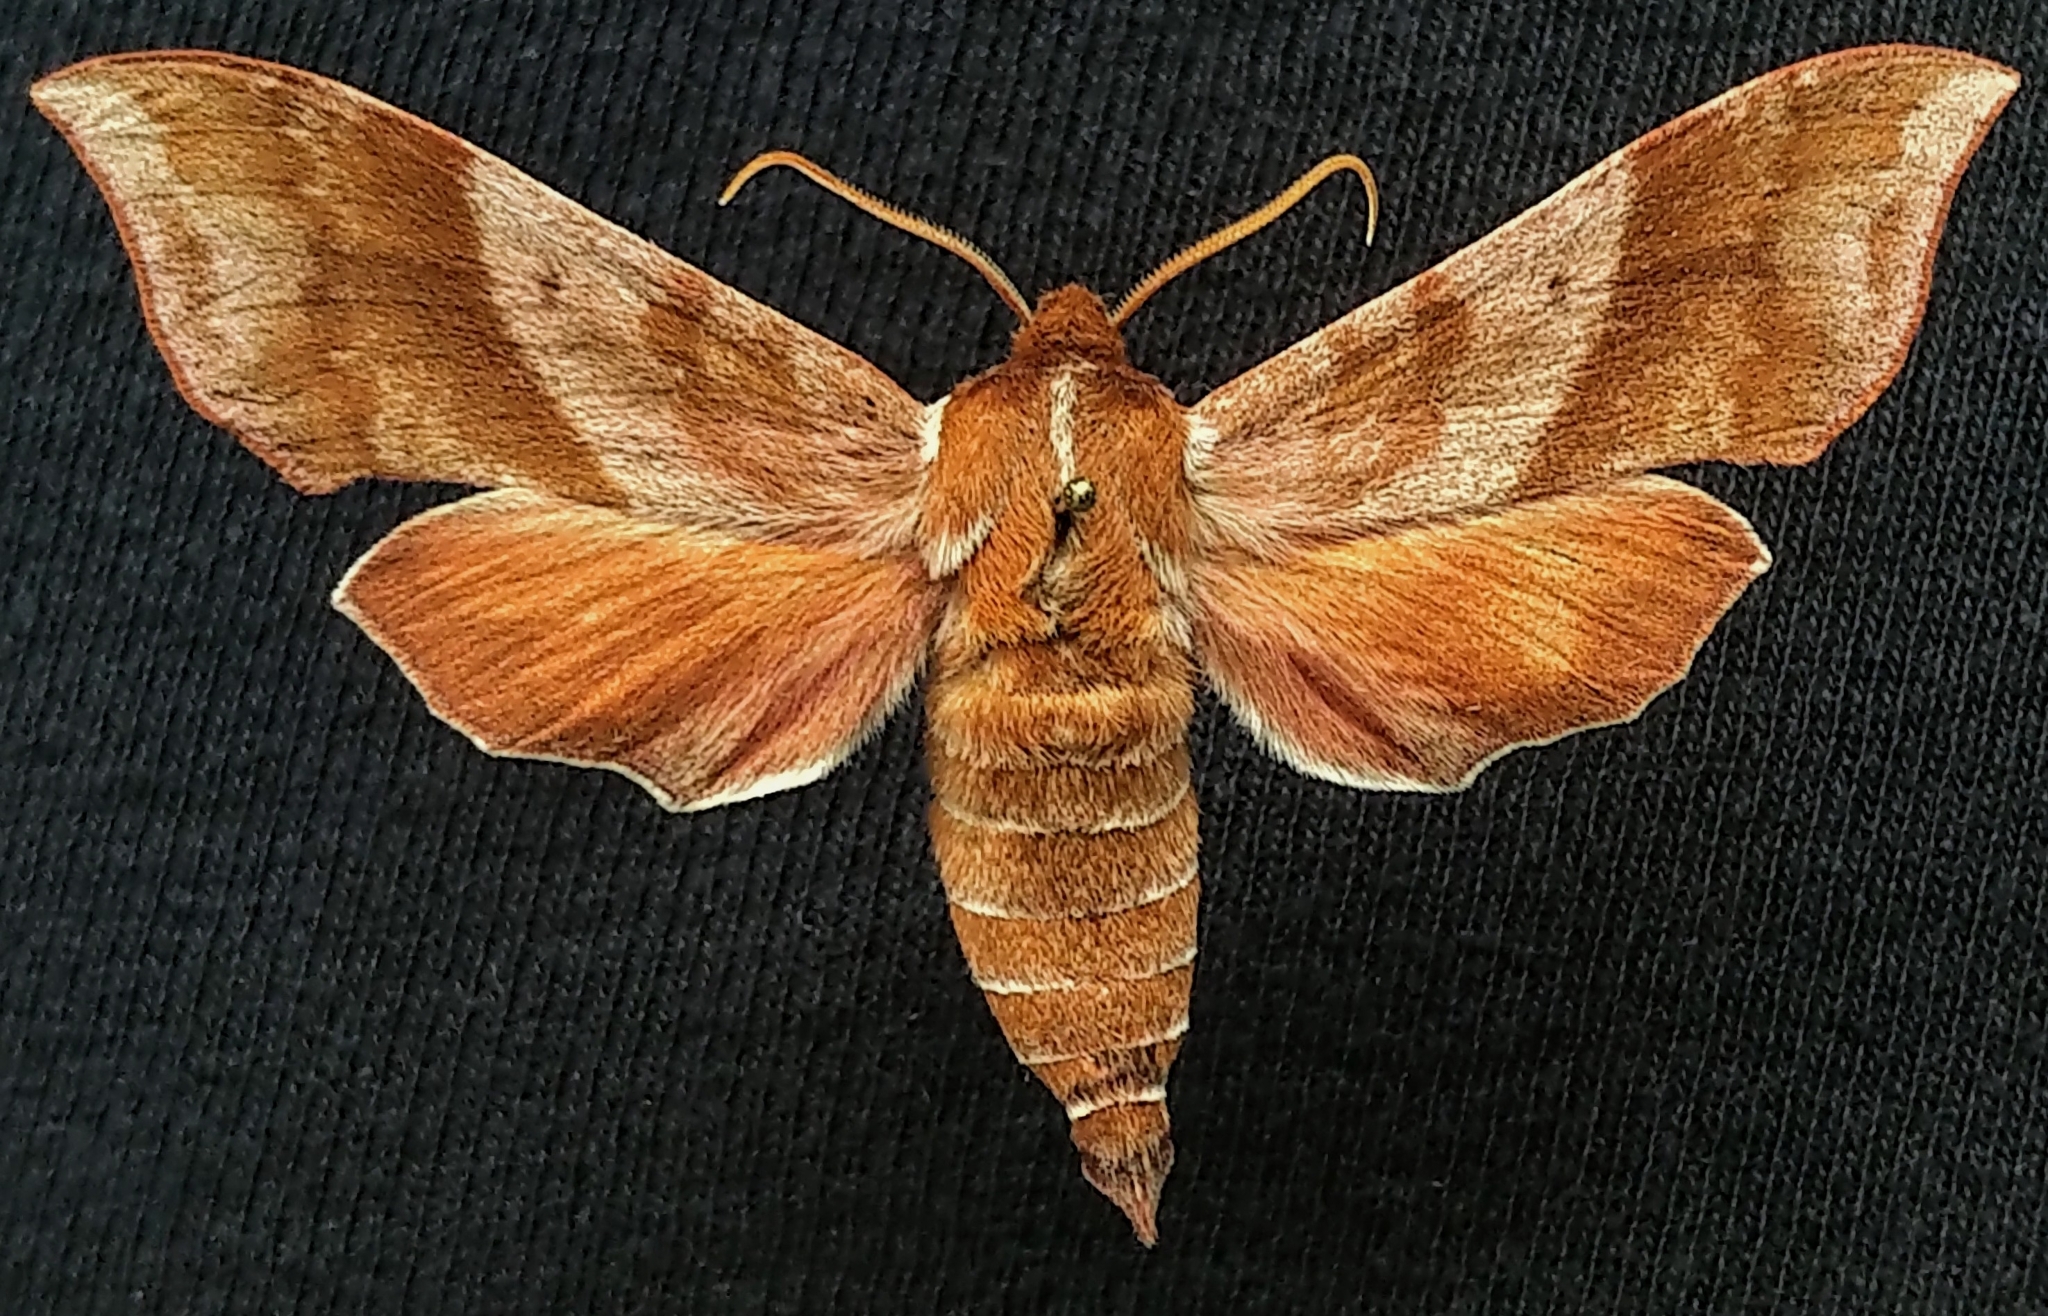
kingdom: Animalia
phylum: Arthropoda
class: Insecta
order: Lepidoptera
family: Sphingidae
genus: Darapsa
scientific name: Darapsa choerilus
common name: Azalea sphinx
